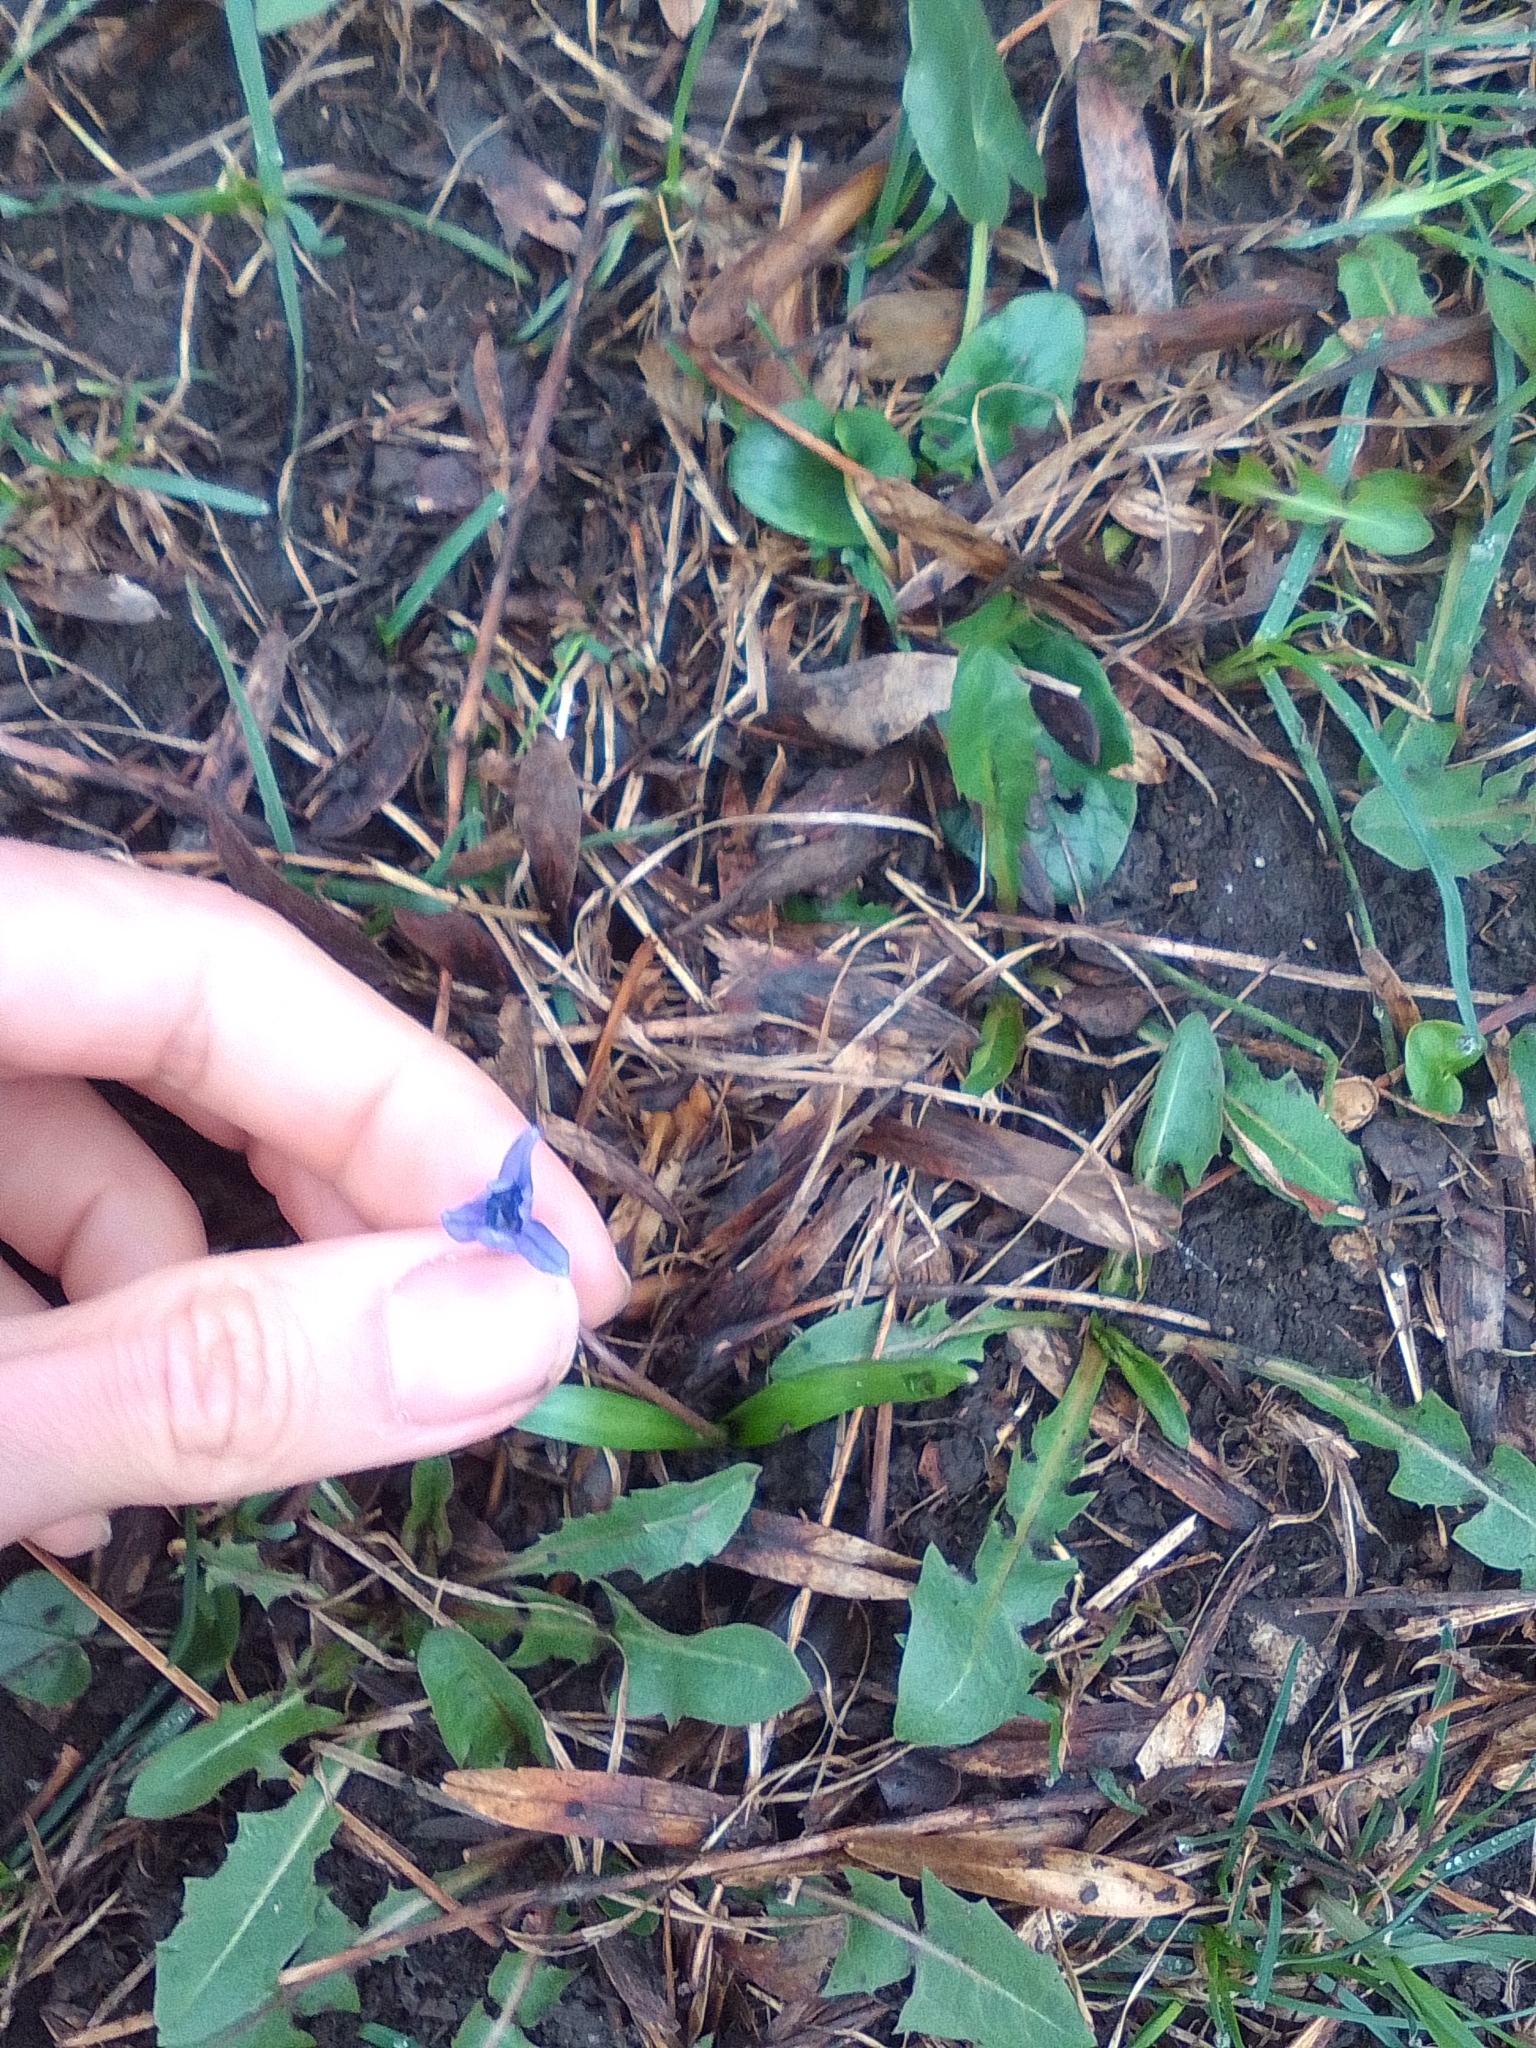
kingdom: Plantae
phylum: Tracheophyta
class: Liliopsida
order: Asparagales
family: Asparagaceae
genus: Scilla
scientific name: Scilla siberica
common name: Siberian squill
